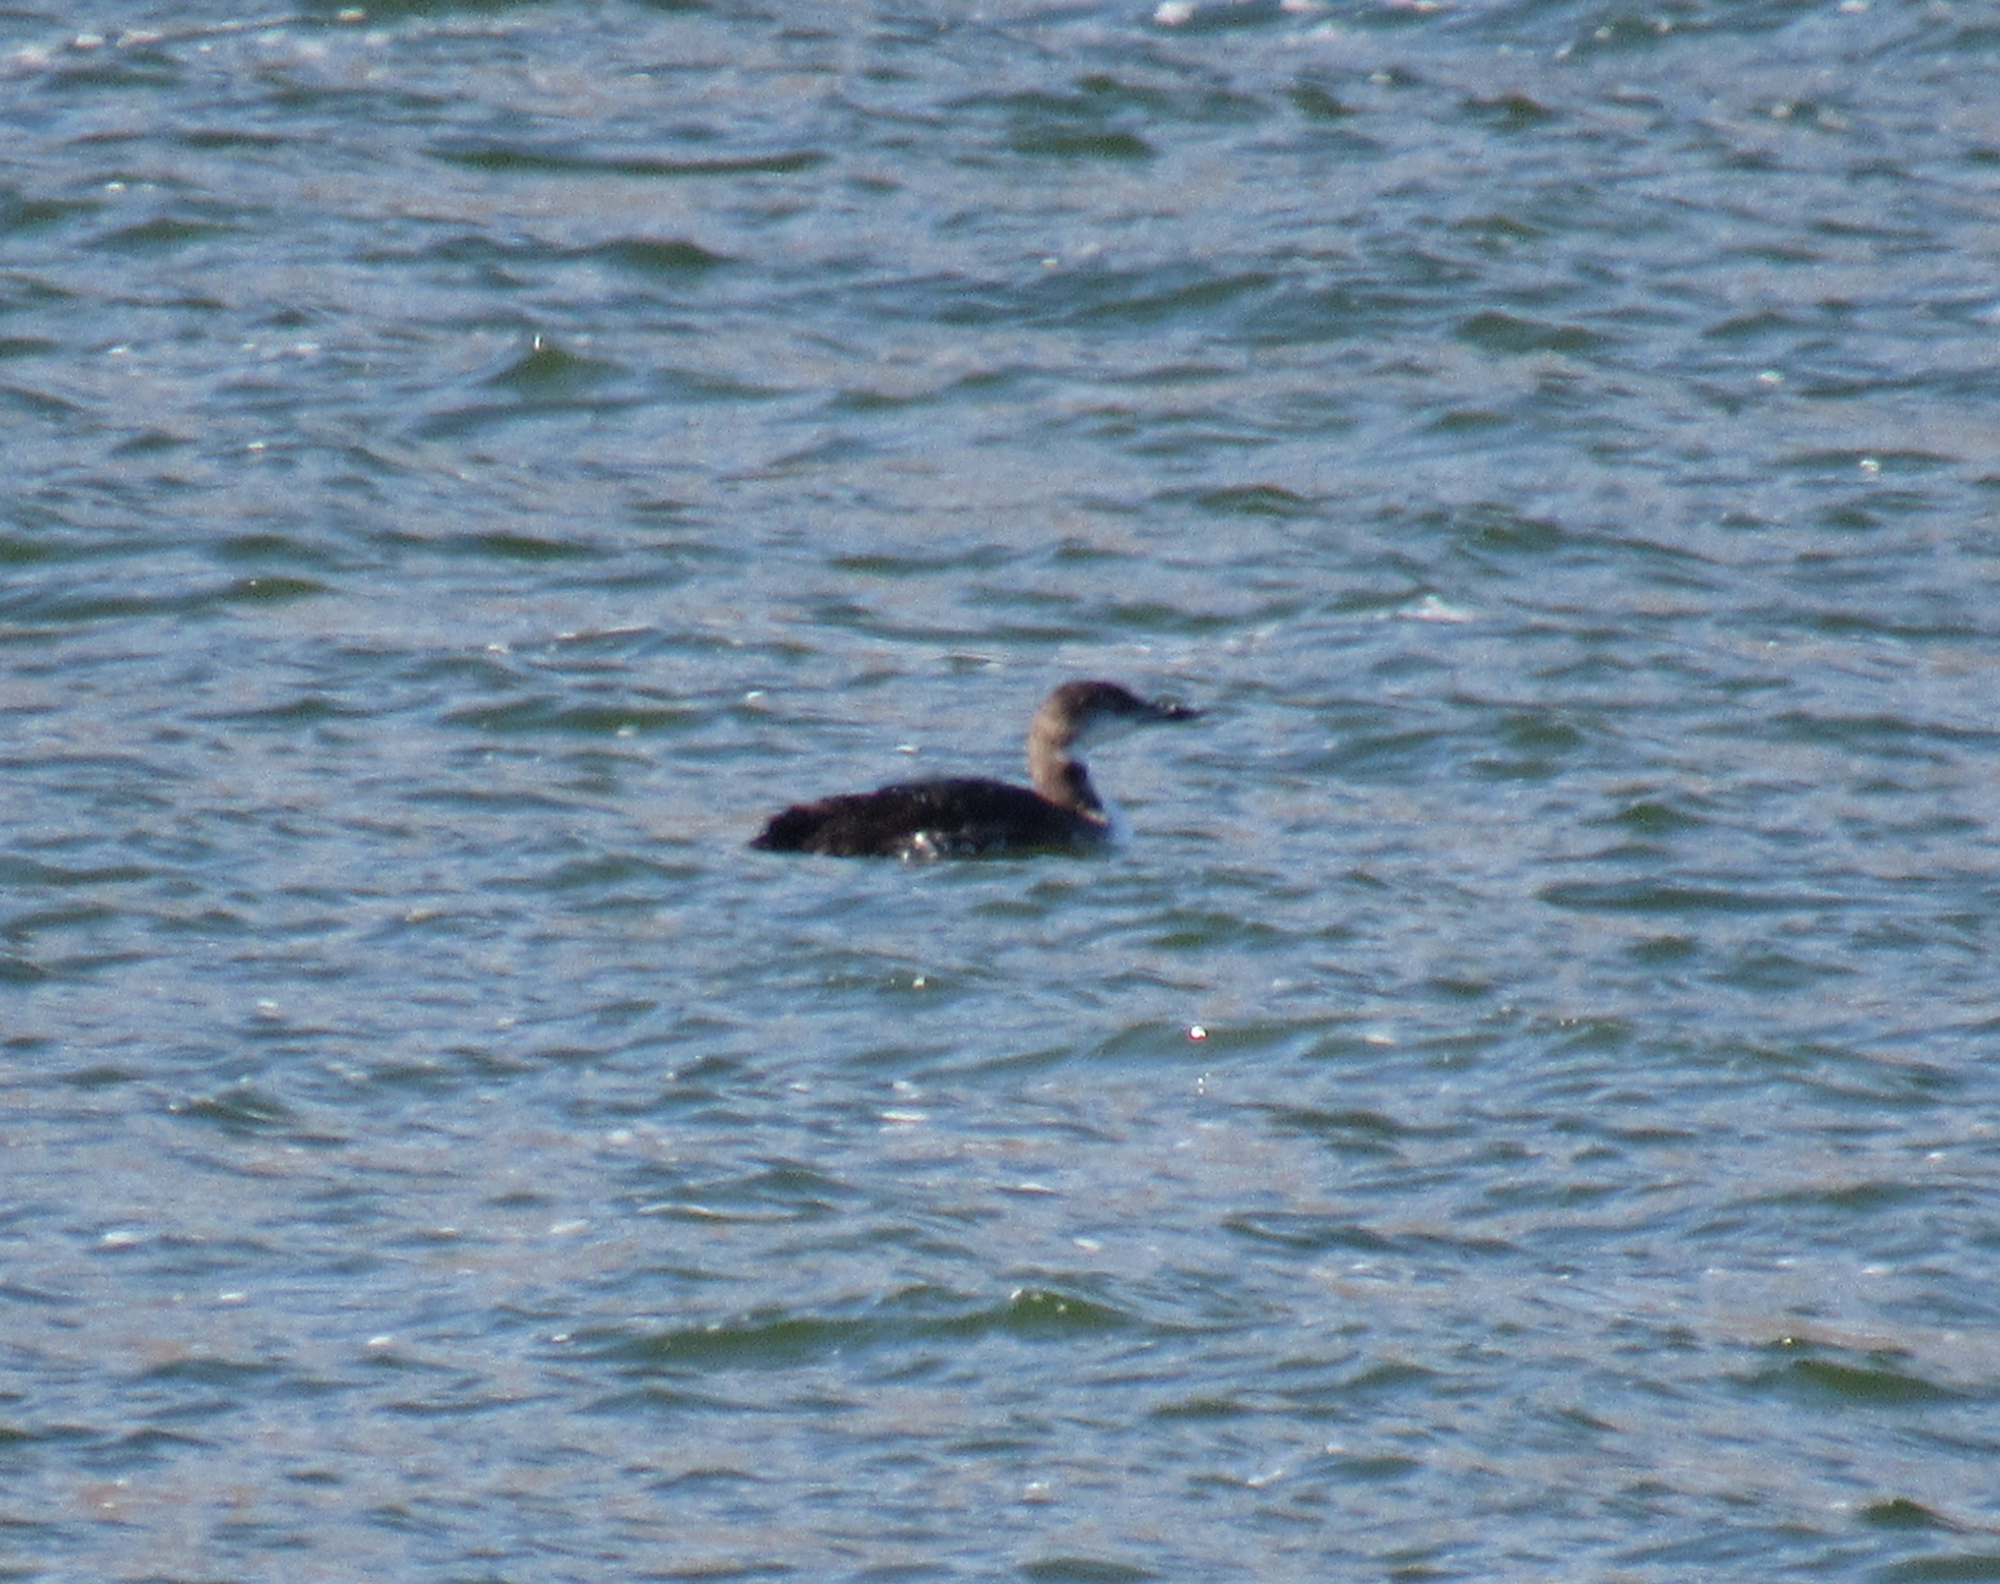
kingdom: Animalia
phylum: Chordata
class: Aves
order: Gaviiformes
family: Gaviidae
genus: Gavia
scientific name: Gavia immer
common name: Common loon
